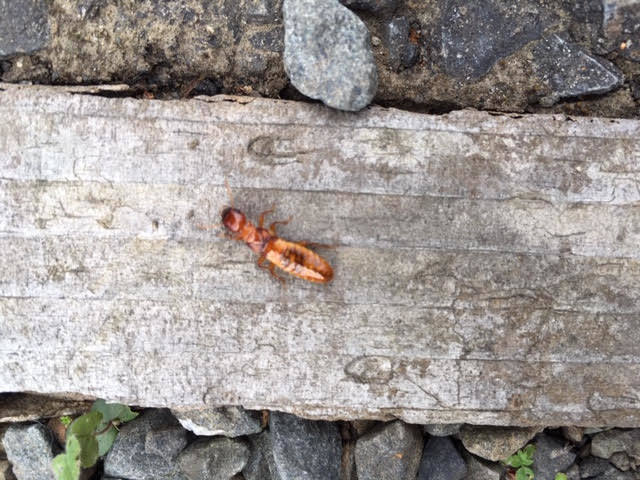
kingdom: Animalia
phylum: Arthropoda
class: Insecta
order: Blattodea
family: Archotermopsidae
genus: Zootermopsis
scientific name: Zootermopsis angusticollis
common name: Rottenwood termite
